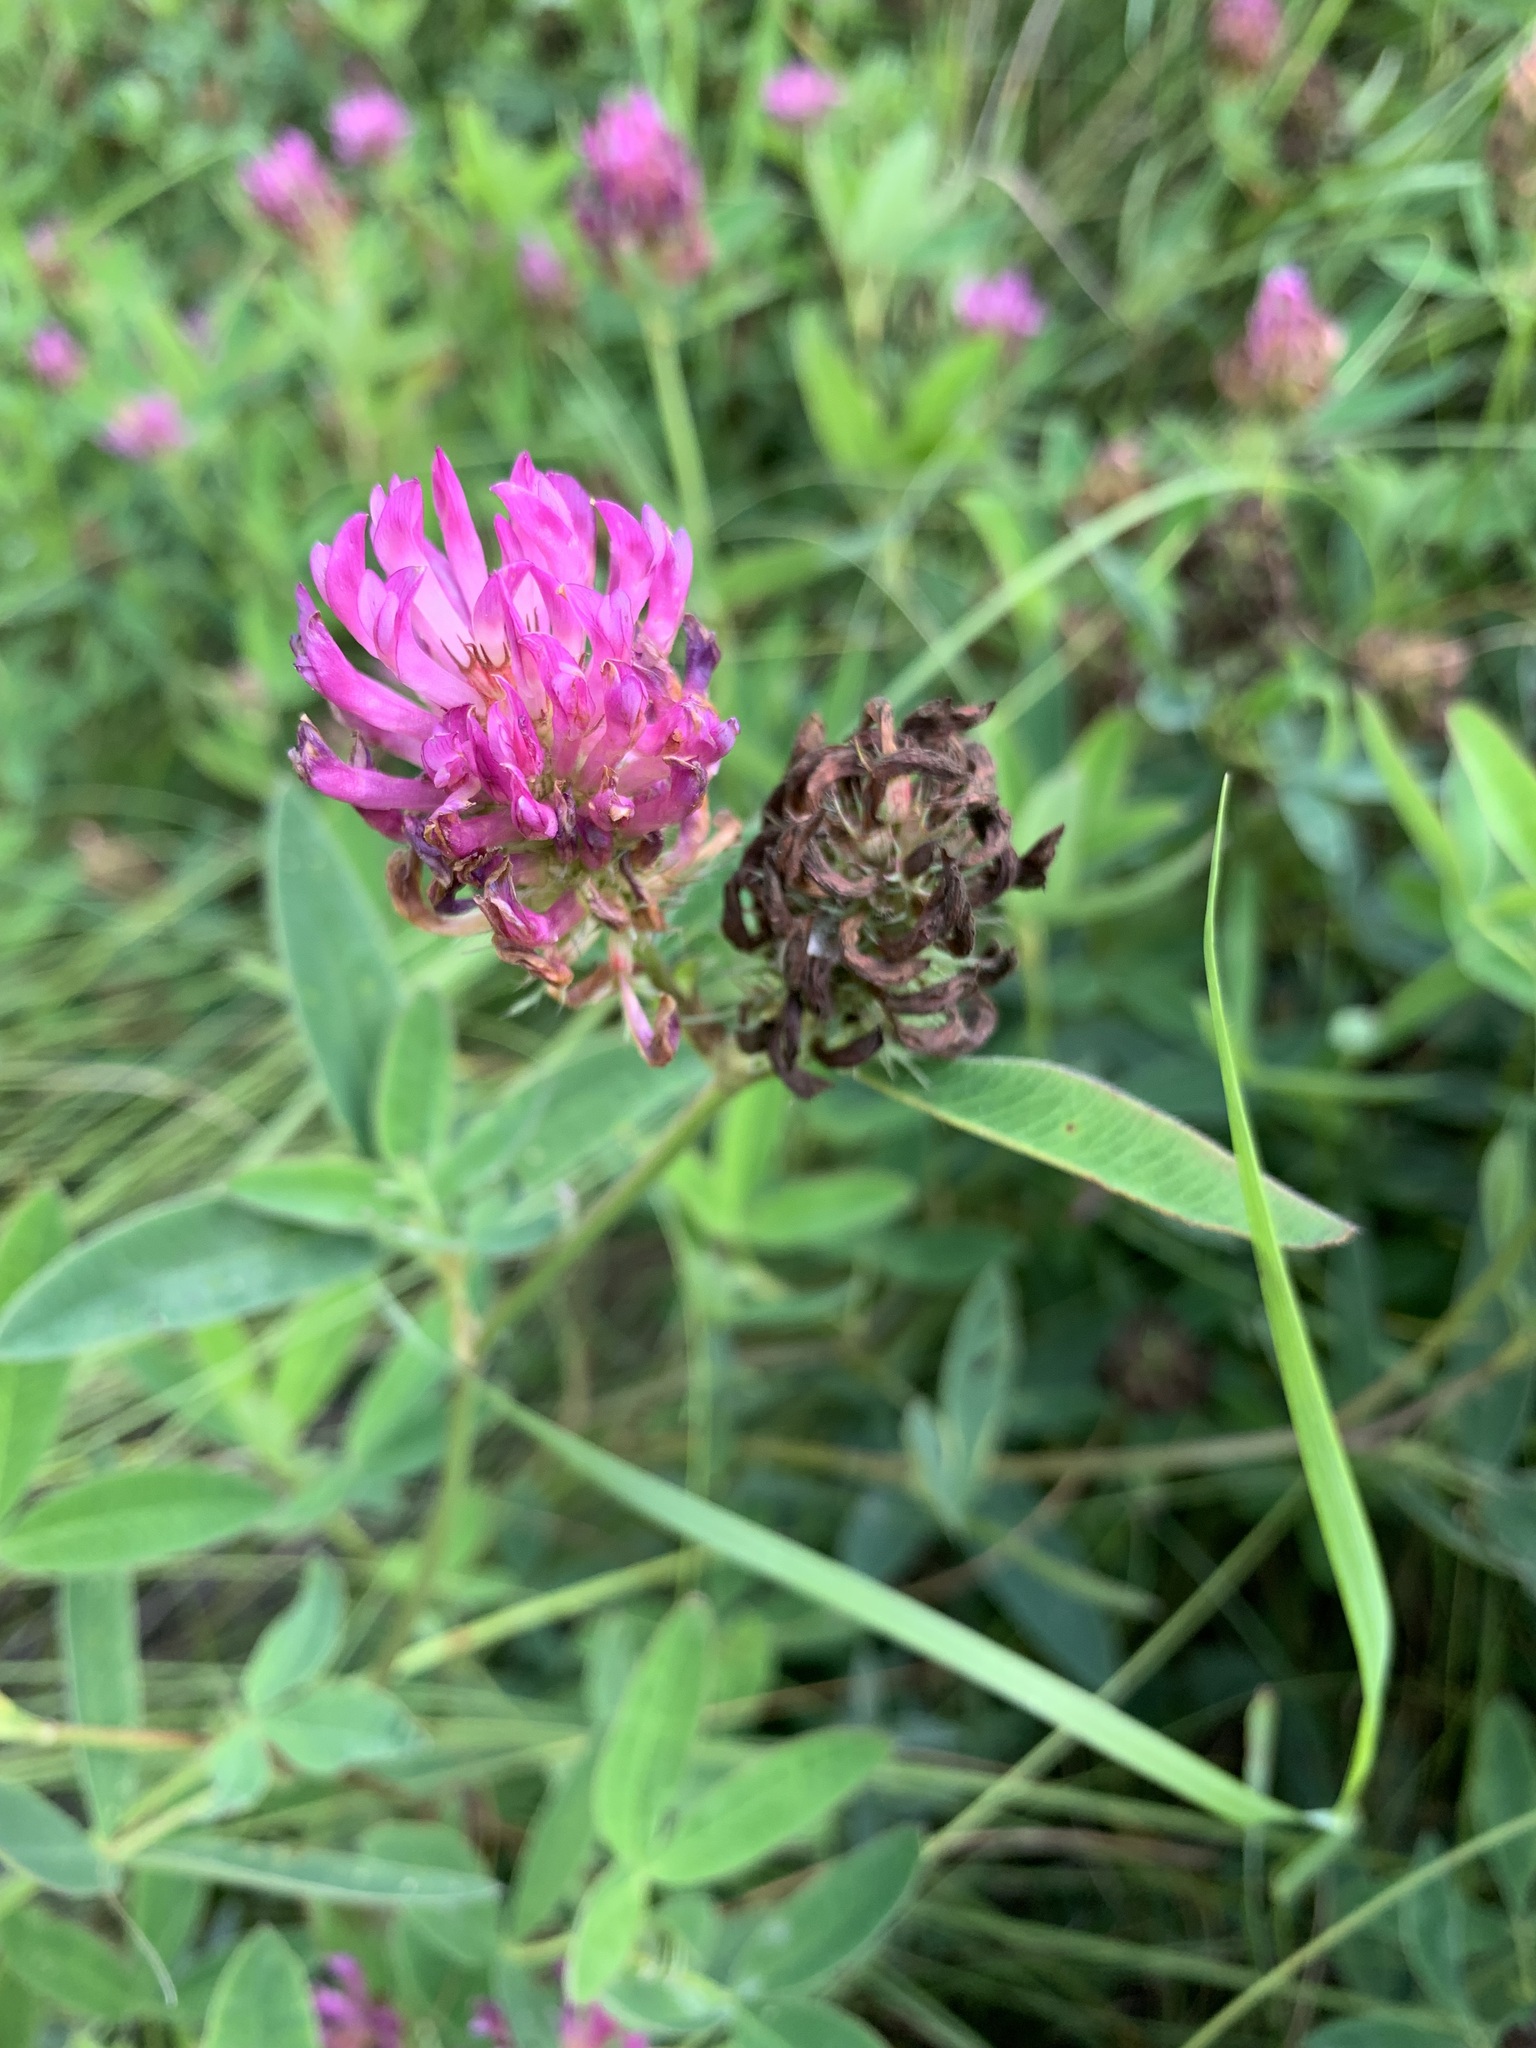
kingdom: Plantae
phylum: Tracheophyta
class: Magnoliopsida
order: Fabales
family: Fabaceae
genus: Trifolium
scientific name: Trifolium medium
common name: Zigzag clover
